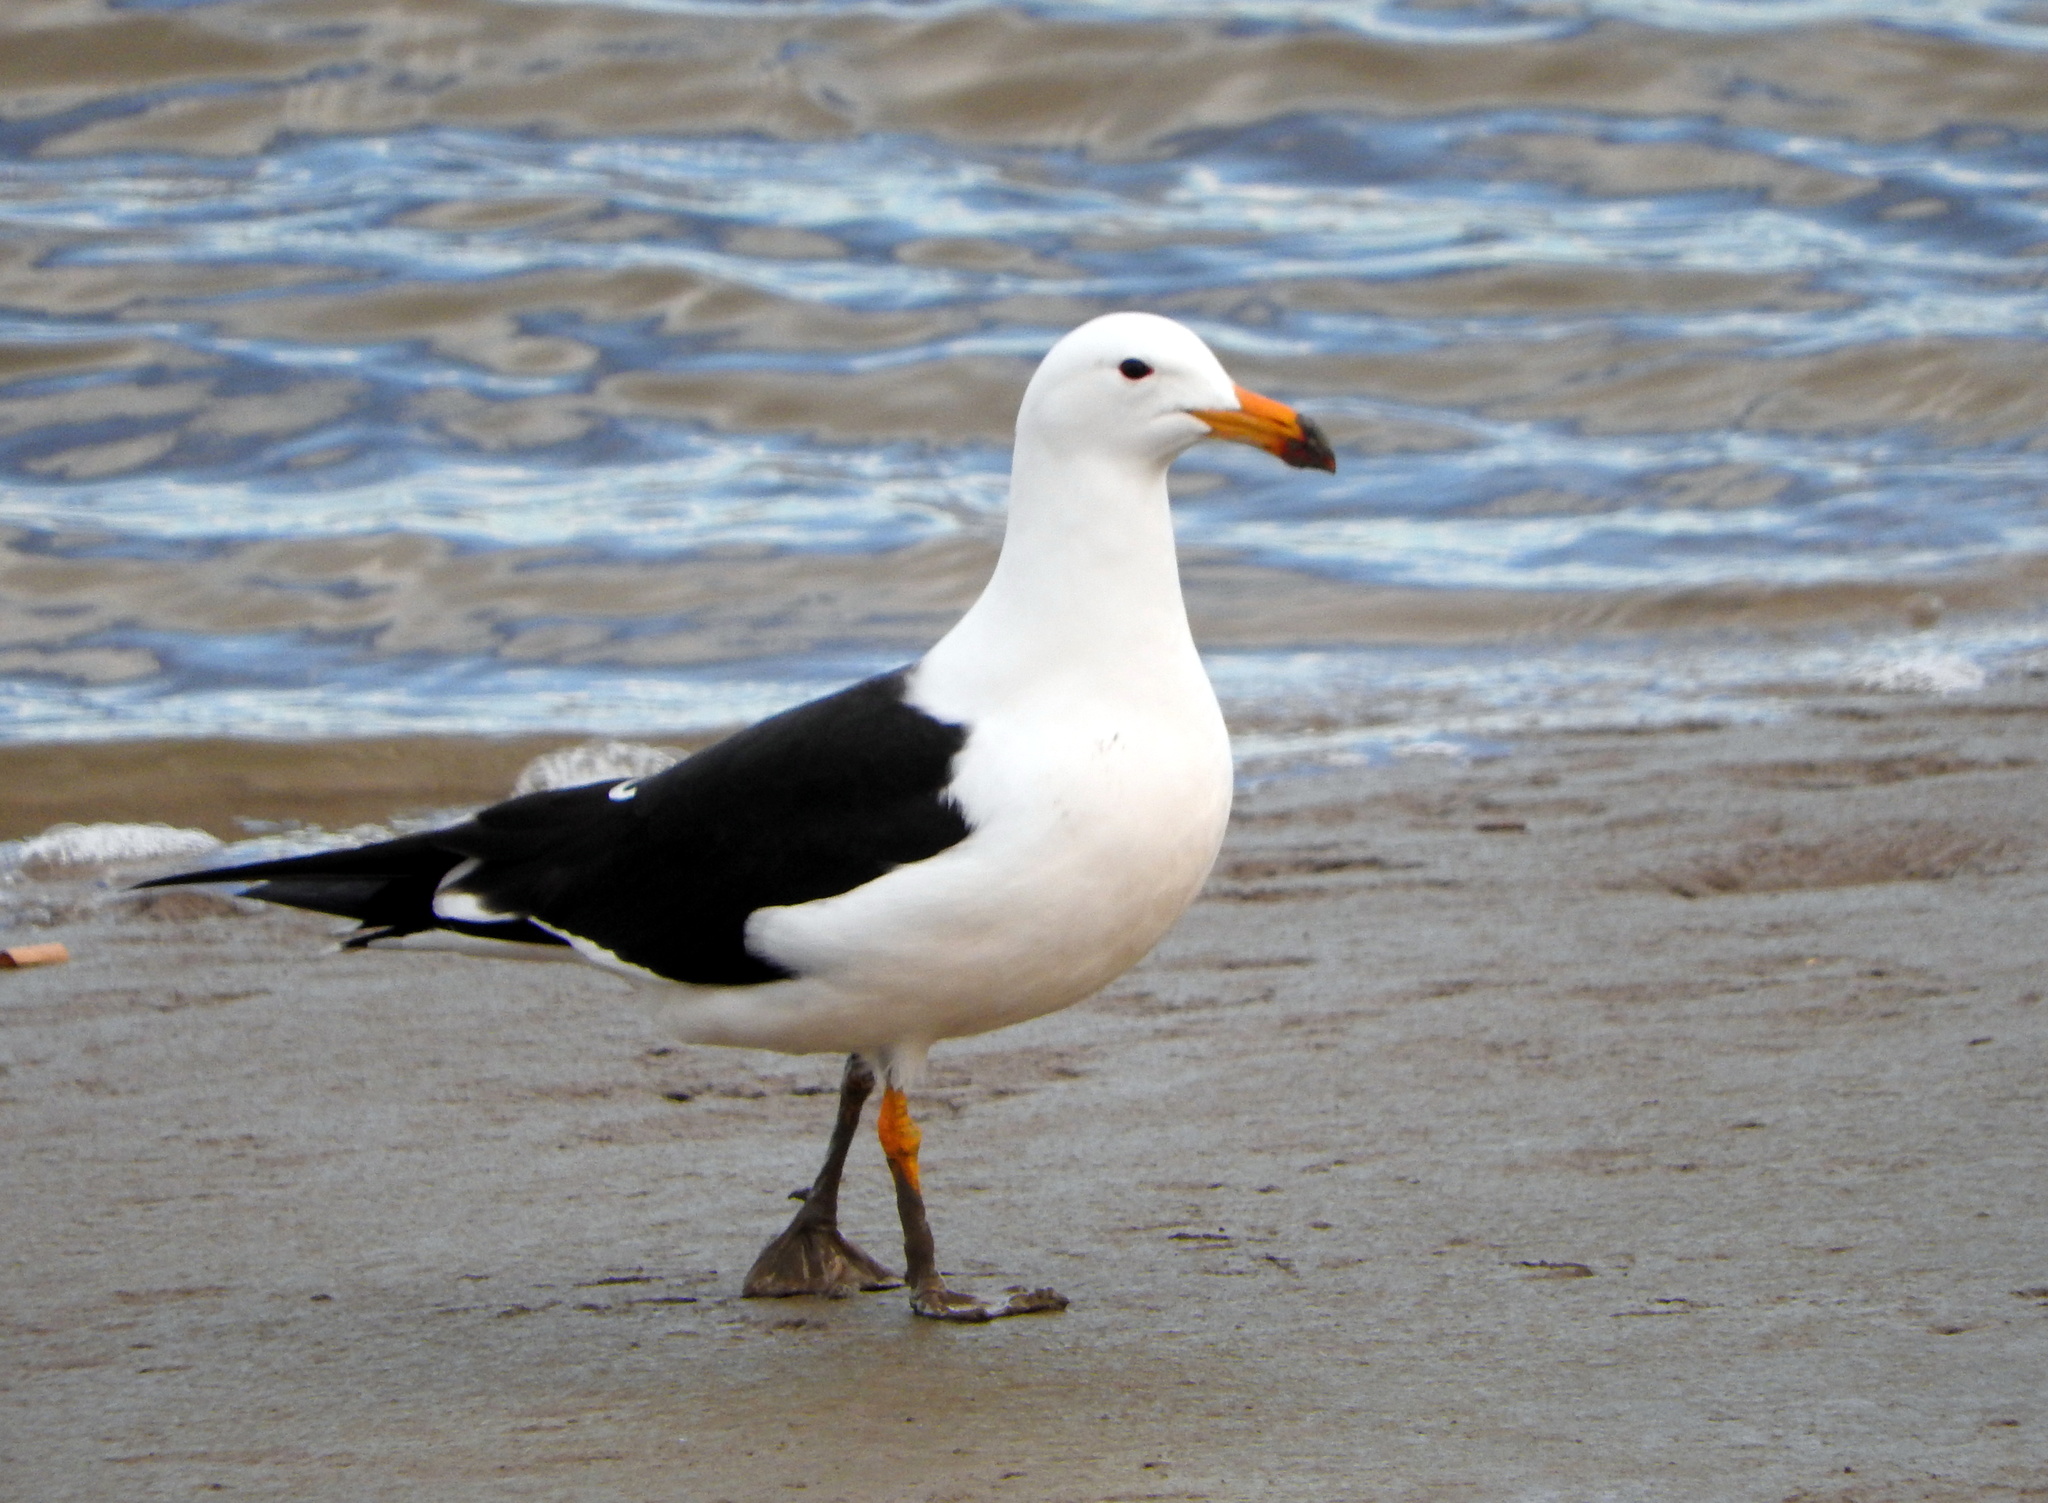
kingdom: Animalia
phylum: Chordata
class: Aves
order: Charadriiformes
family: Laridae
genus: Larus
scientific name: Larus atlanticus
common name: Olrog's gull
